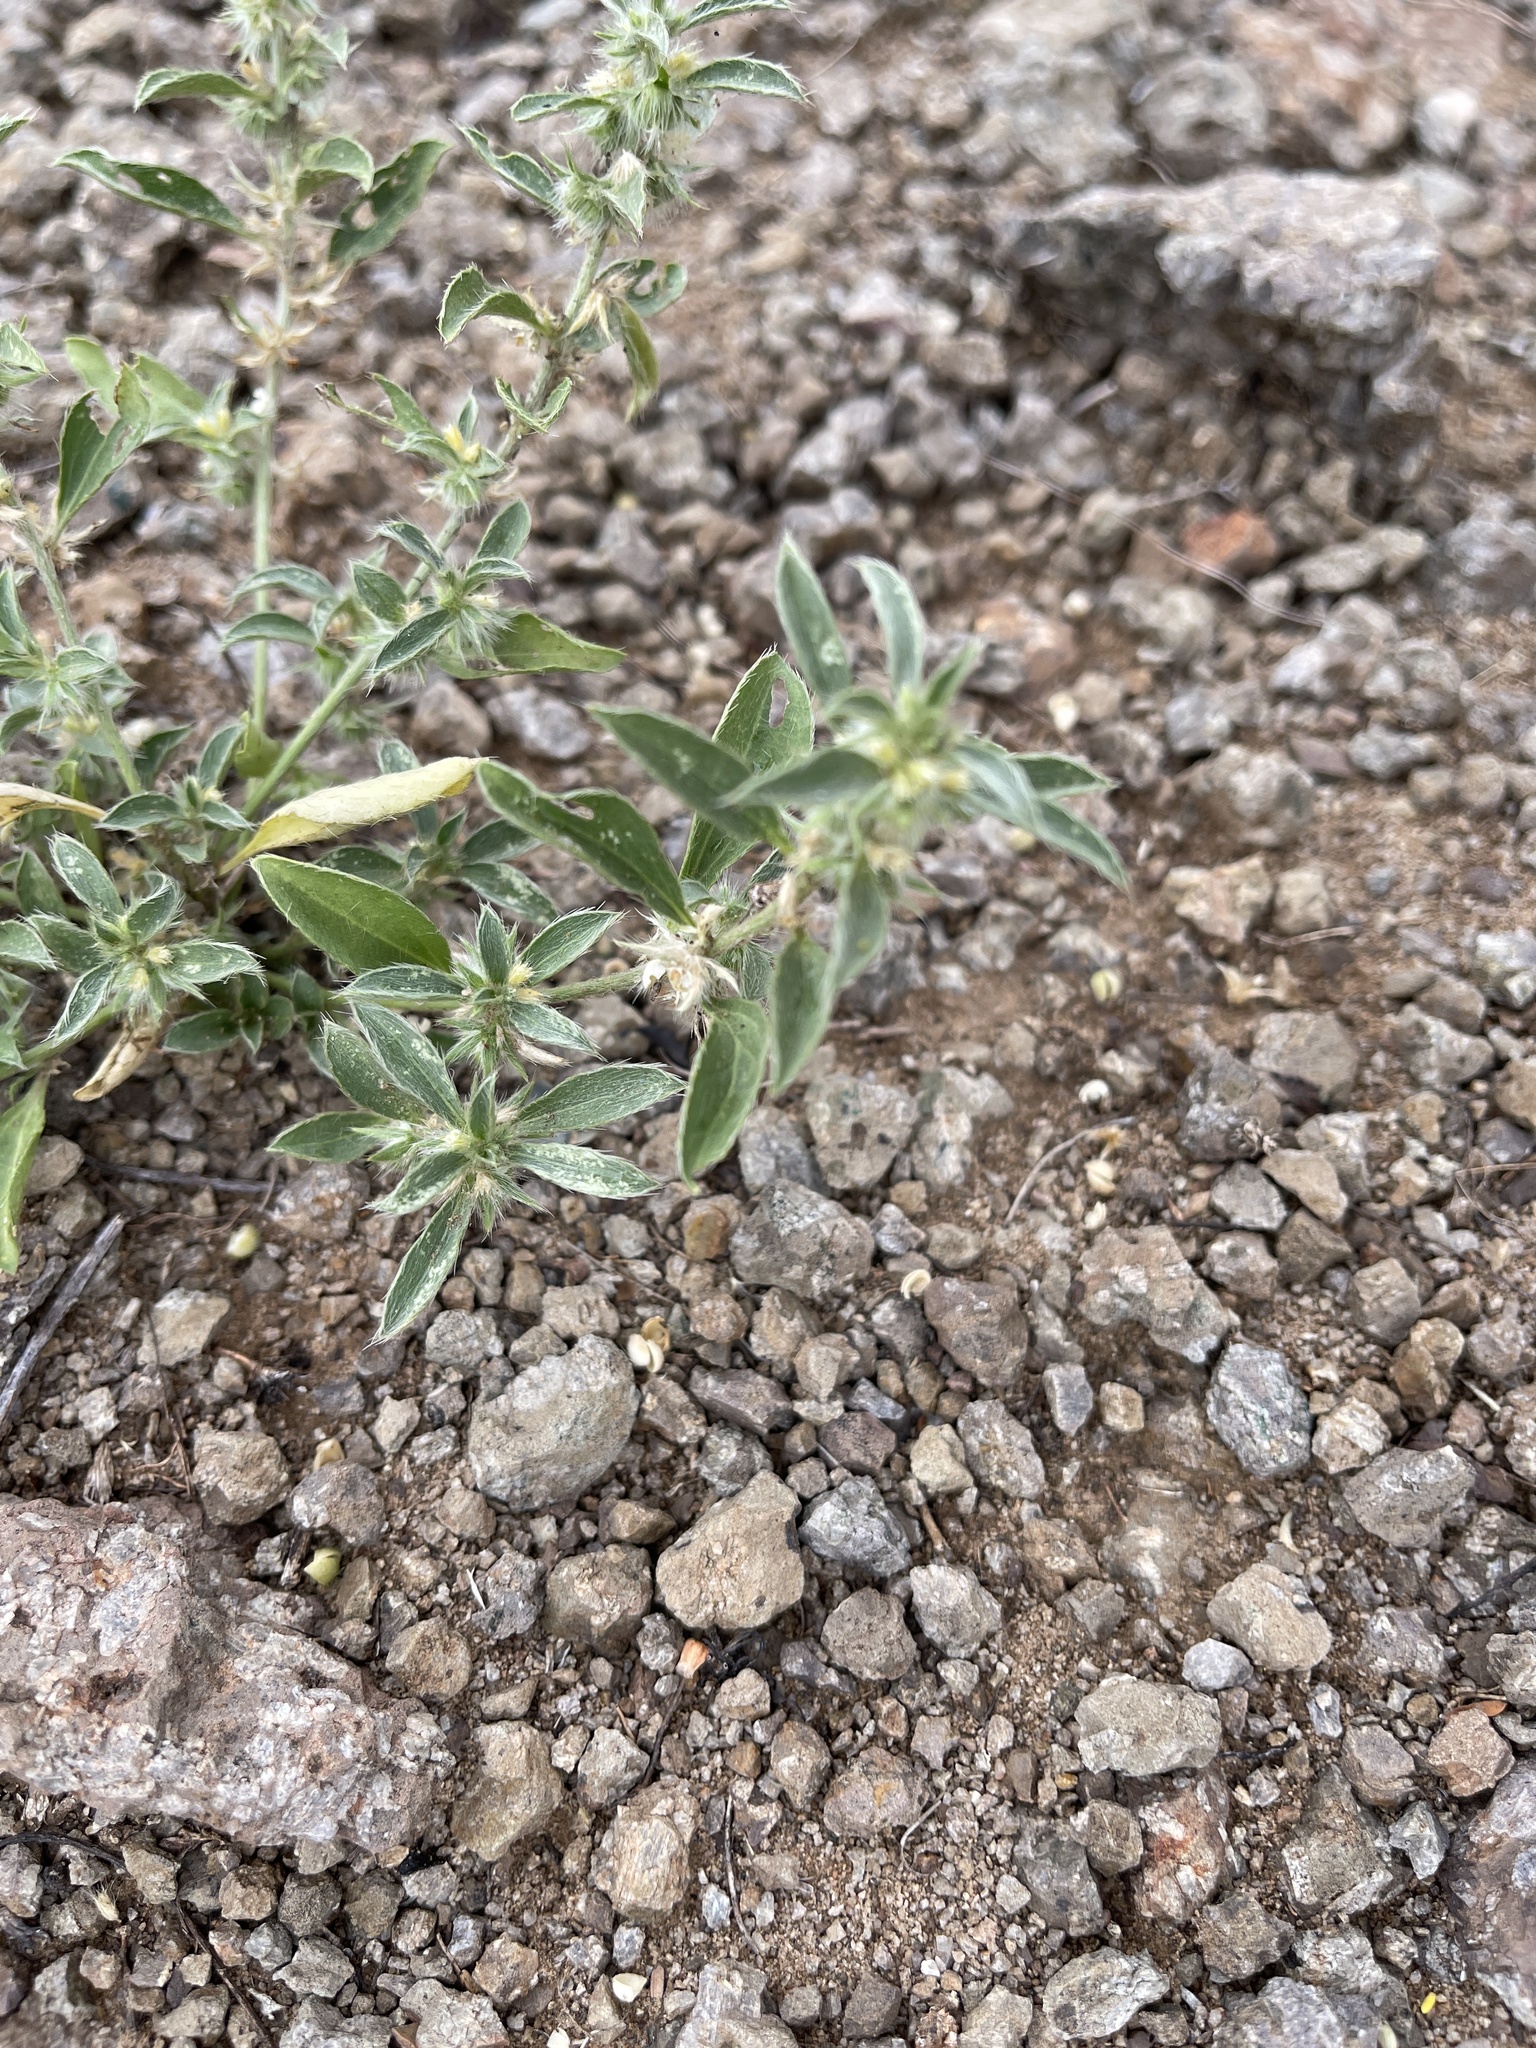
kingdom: Plantae
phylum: Tracheophyta
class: Magnoliopsida
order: Malpighiales
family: Euphorbiaceae
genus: Ditaxis
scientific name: Ditaxis serrata
